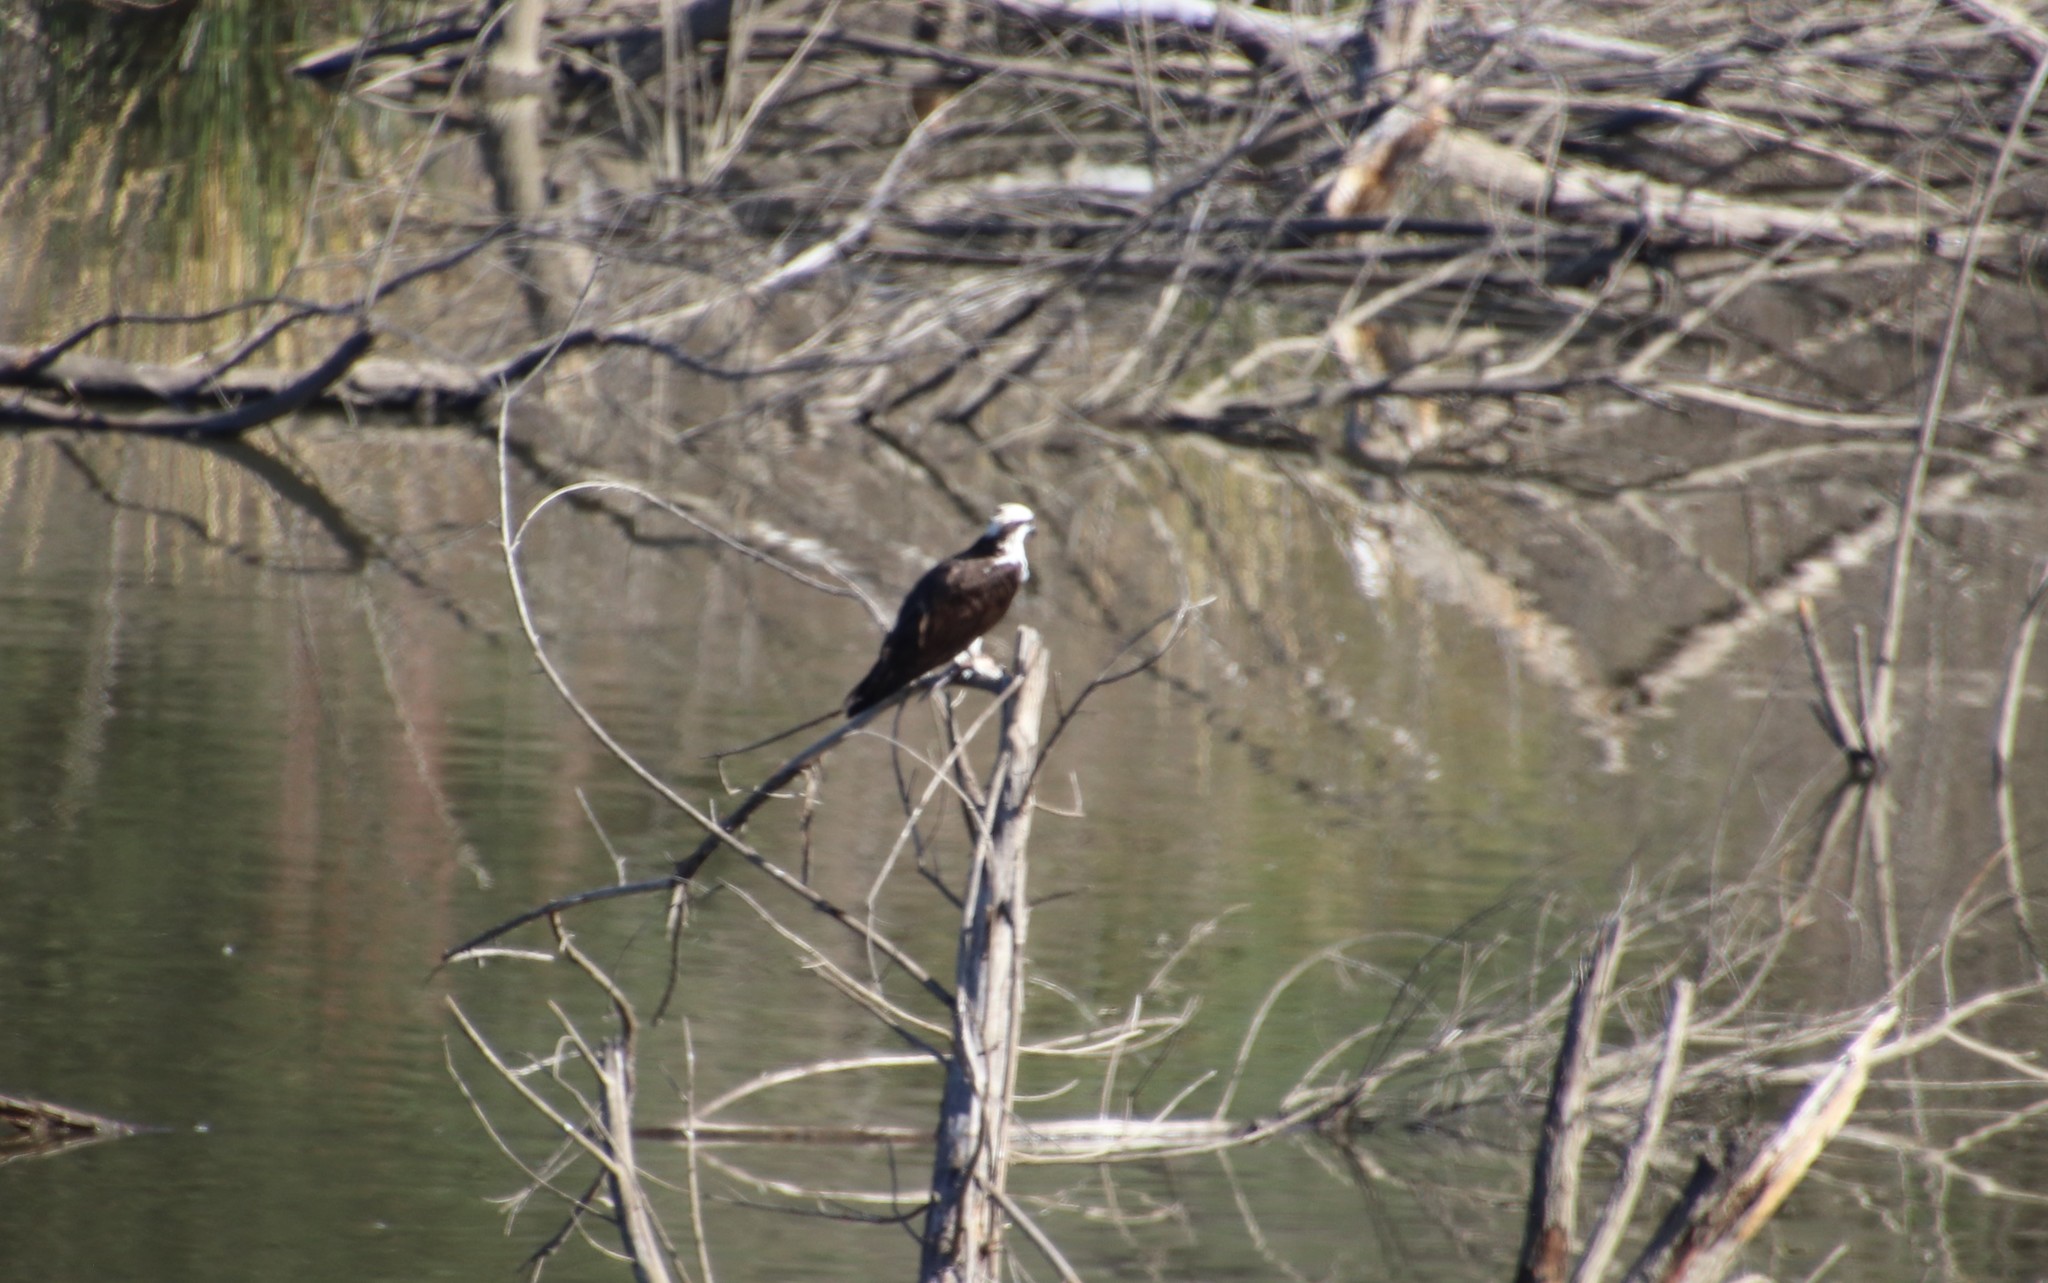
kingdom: Animalia
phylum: Chordata
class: Aves
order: Accipitriformes
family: Pandionidae
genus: Pandion
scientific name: Pandion haliaetus
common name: Osprey
